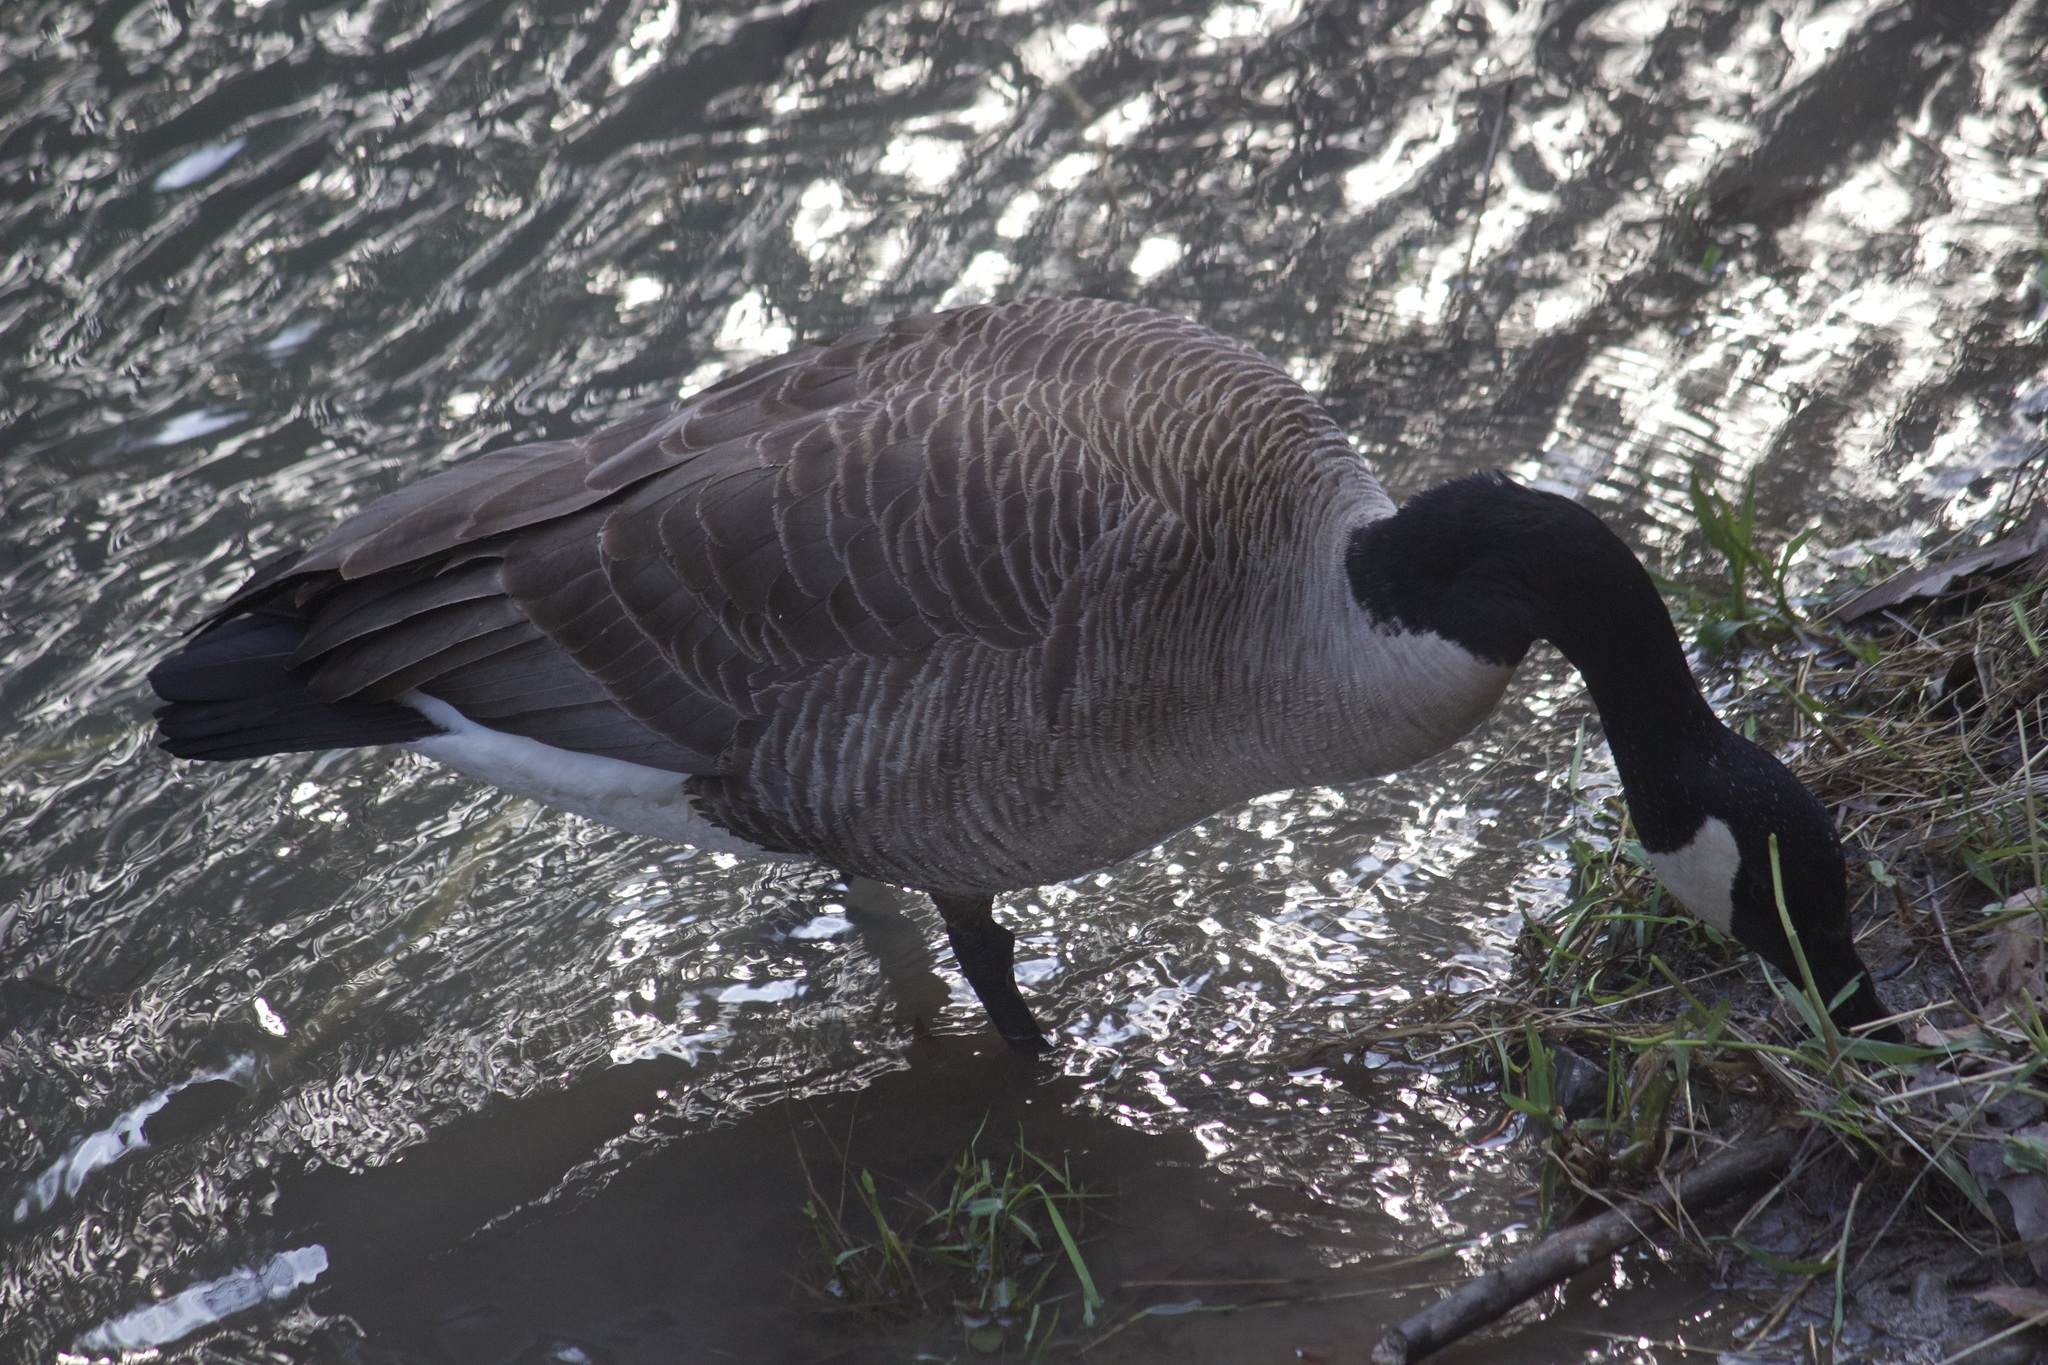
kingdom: Animalia
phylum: Chordata
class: Aves
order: Anseriformes
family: Anatidae
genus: Branta
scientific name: Branta canadensis
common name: Canada goose
